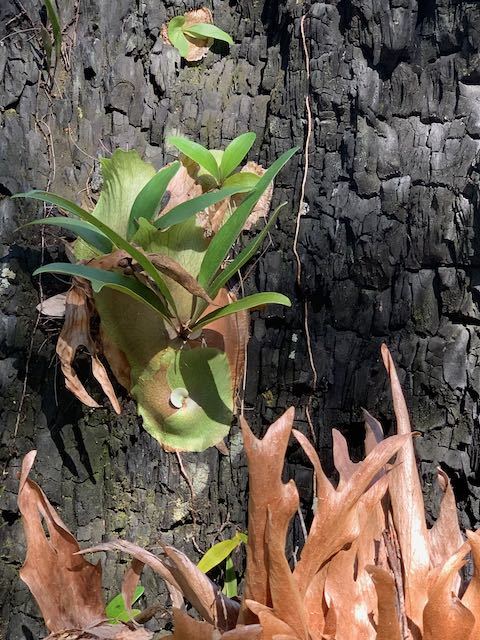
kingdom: Plantae
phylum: Tracheophyta
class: Polypodiopsida
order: Polypodiales
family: Polypodiaceae
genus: Platycerium
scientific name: Platycerium bifurcatum
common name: Elkhorn fern
